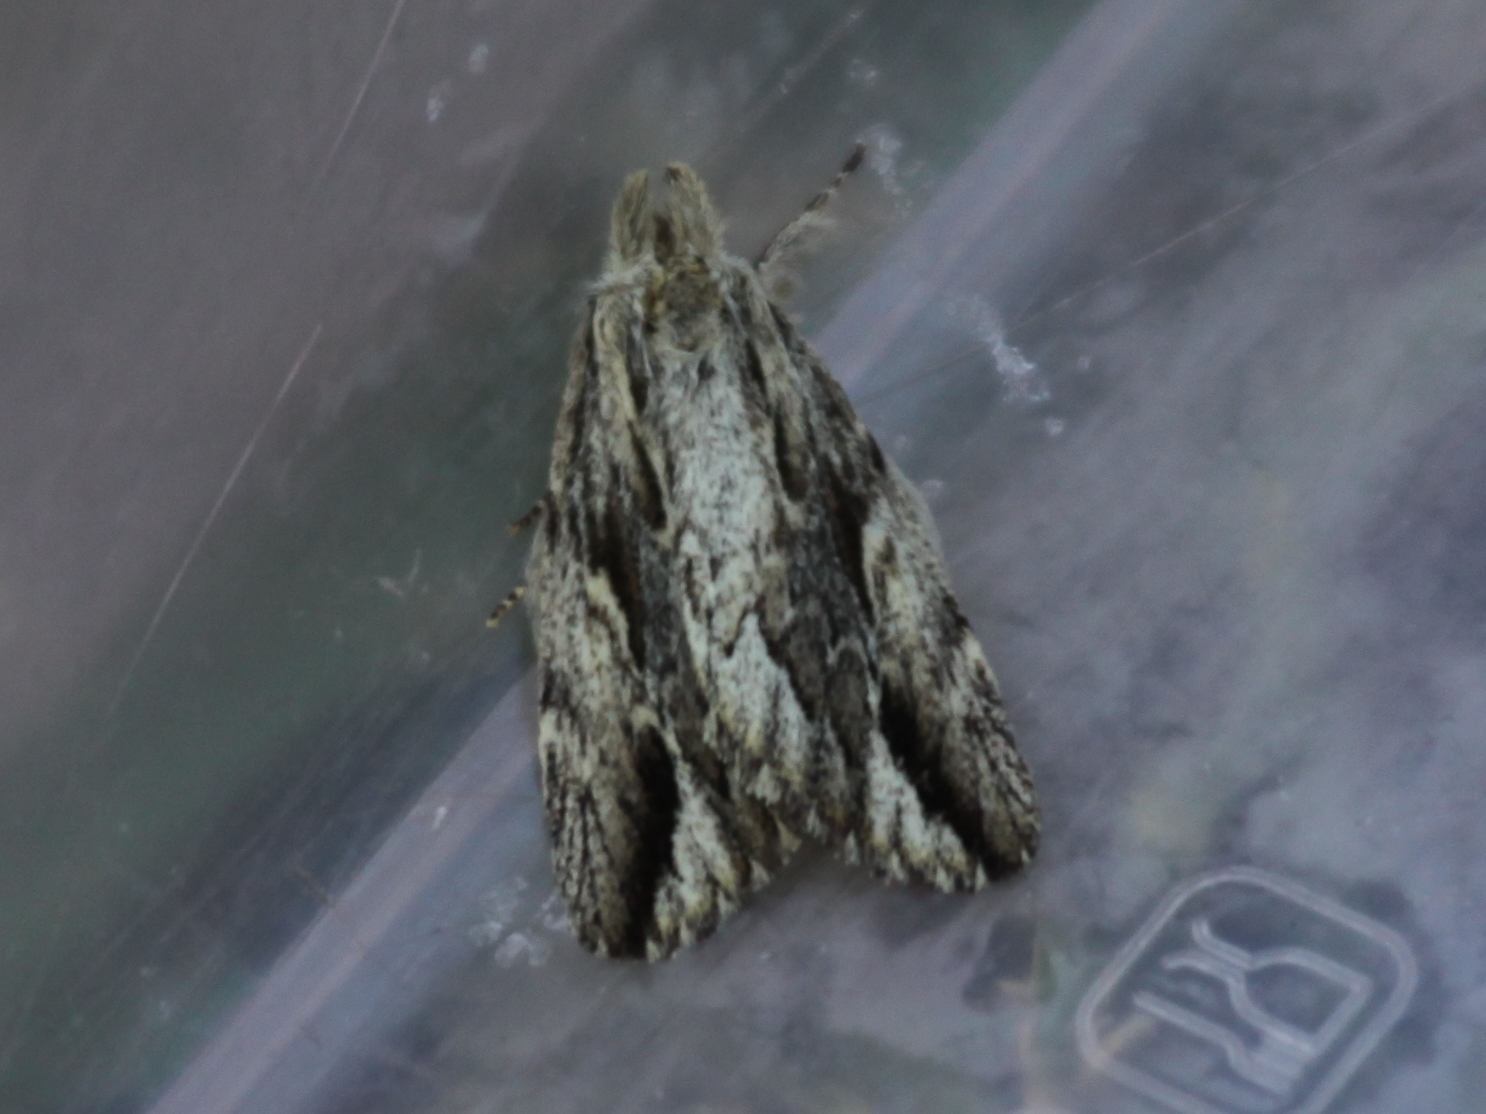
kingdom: Animalia
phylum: Arthropoda
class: Insecta
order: Lepidoptera
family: Notodontidae
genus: Ecnomodes
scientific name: Ecnomodes sagittaria
